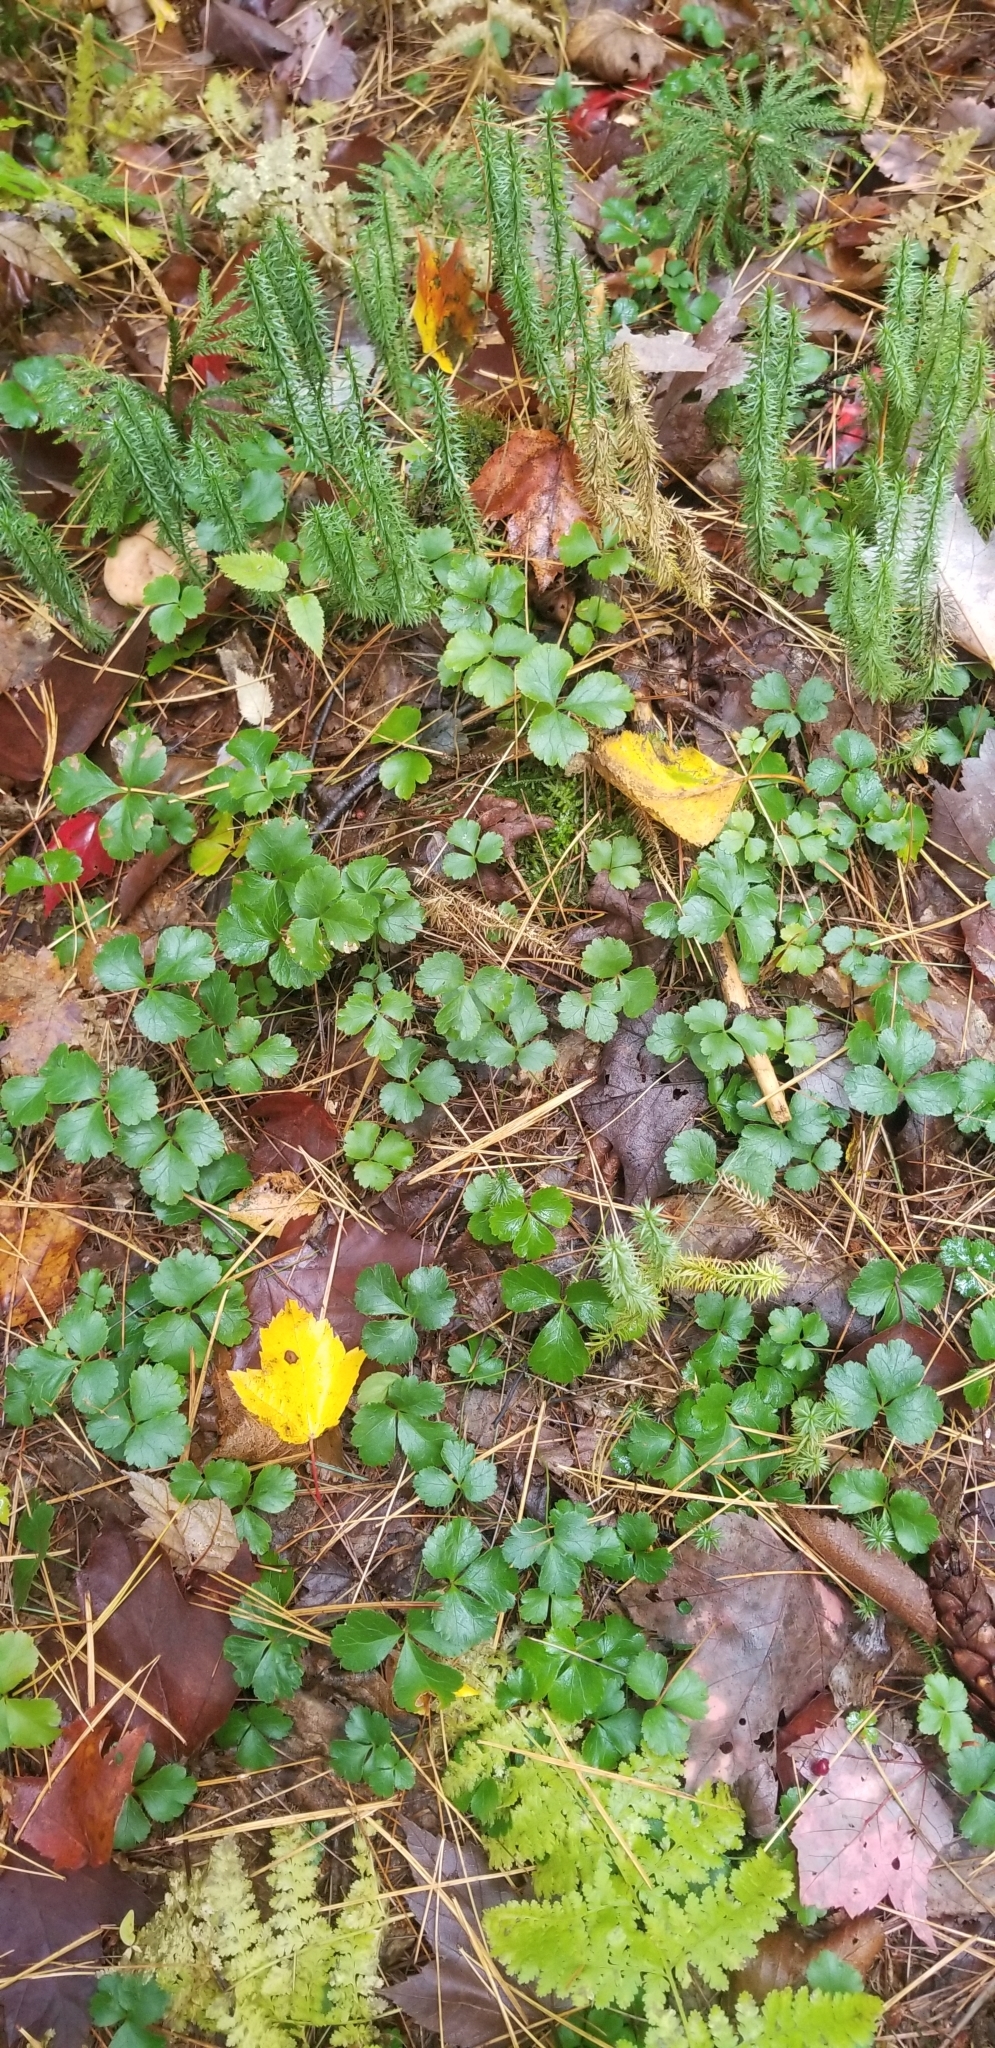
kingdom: Plantae
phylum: Tracheophyta
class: Magnoliopsida
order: Ranunculales
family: Ranunculaceae
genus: Coptis
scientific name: Coptis trifolia
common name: Canker-root
